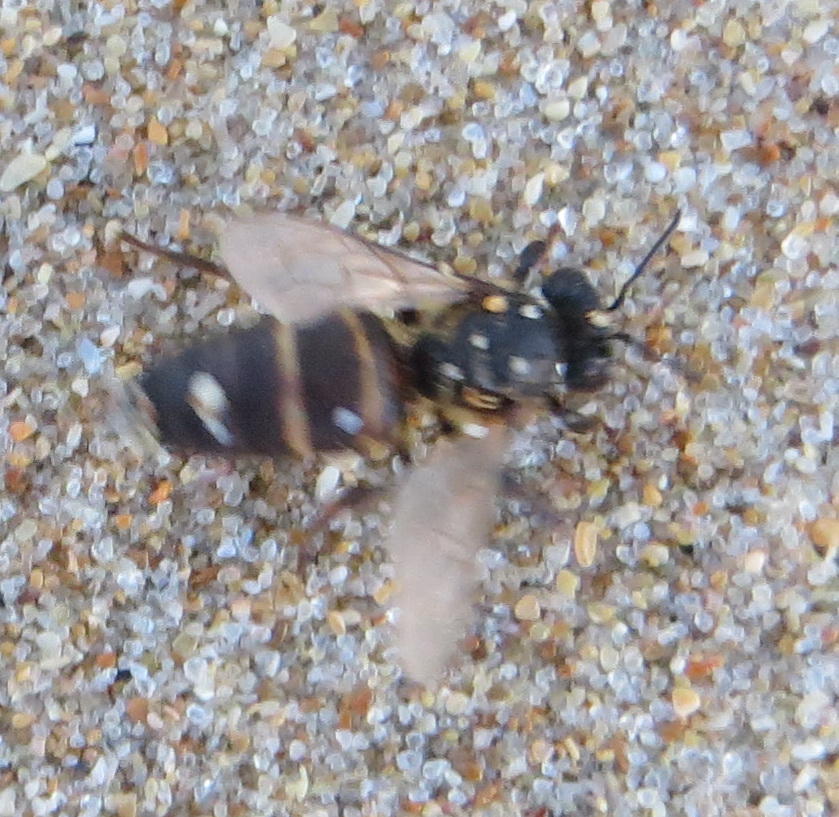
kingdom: Animalia
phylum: Arthropoda
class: Insecta
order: Hymenoptera
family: Apidae
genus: Apis
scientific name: Apis mellifera
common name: Honey bee
